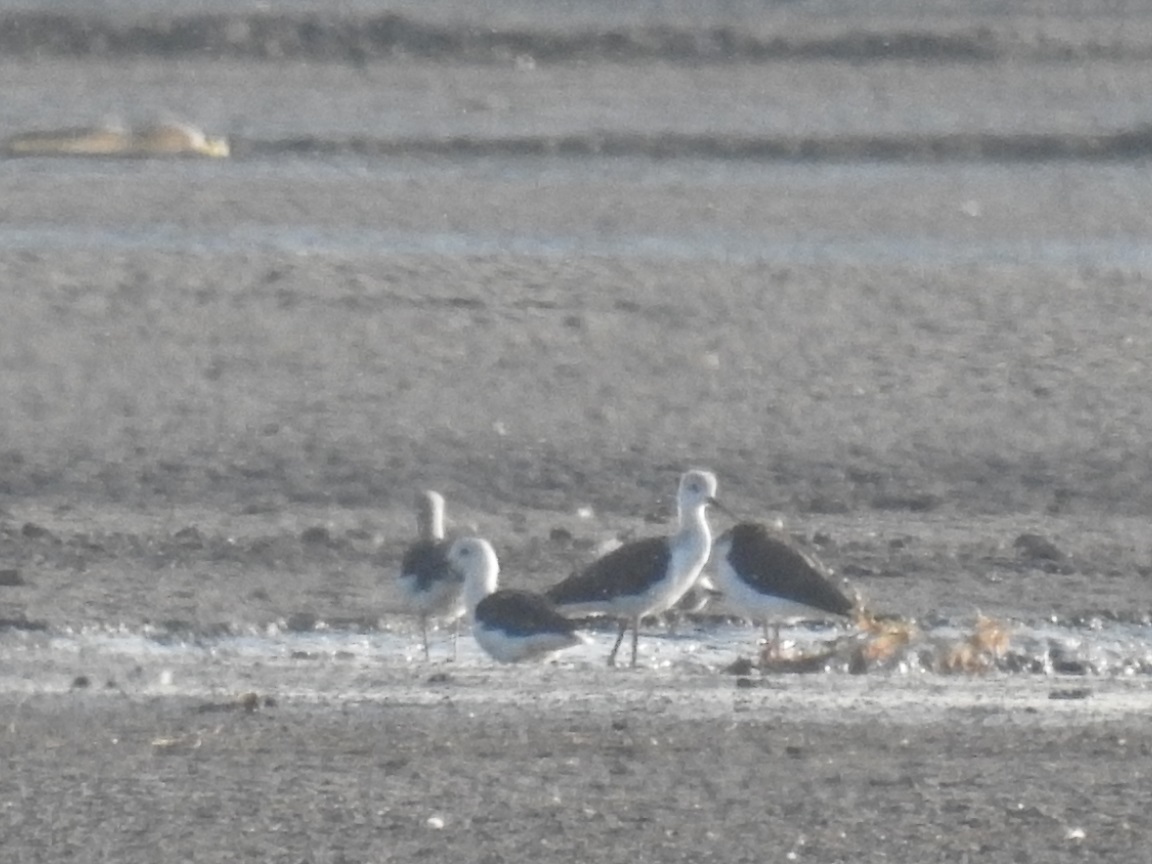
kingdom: Animalia
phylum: Chordata
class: Aves
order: Charadriiformes
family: Recurvirostridae
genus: Himantopus
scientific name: Himantopus himantopus
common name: Black-winged stilt
